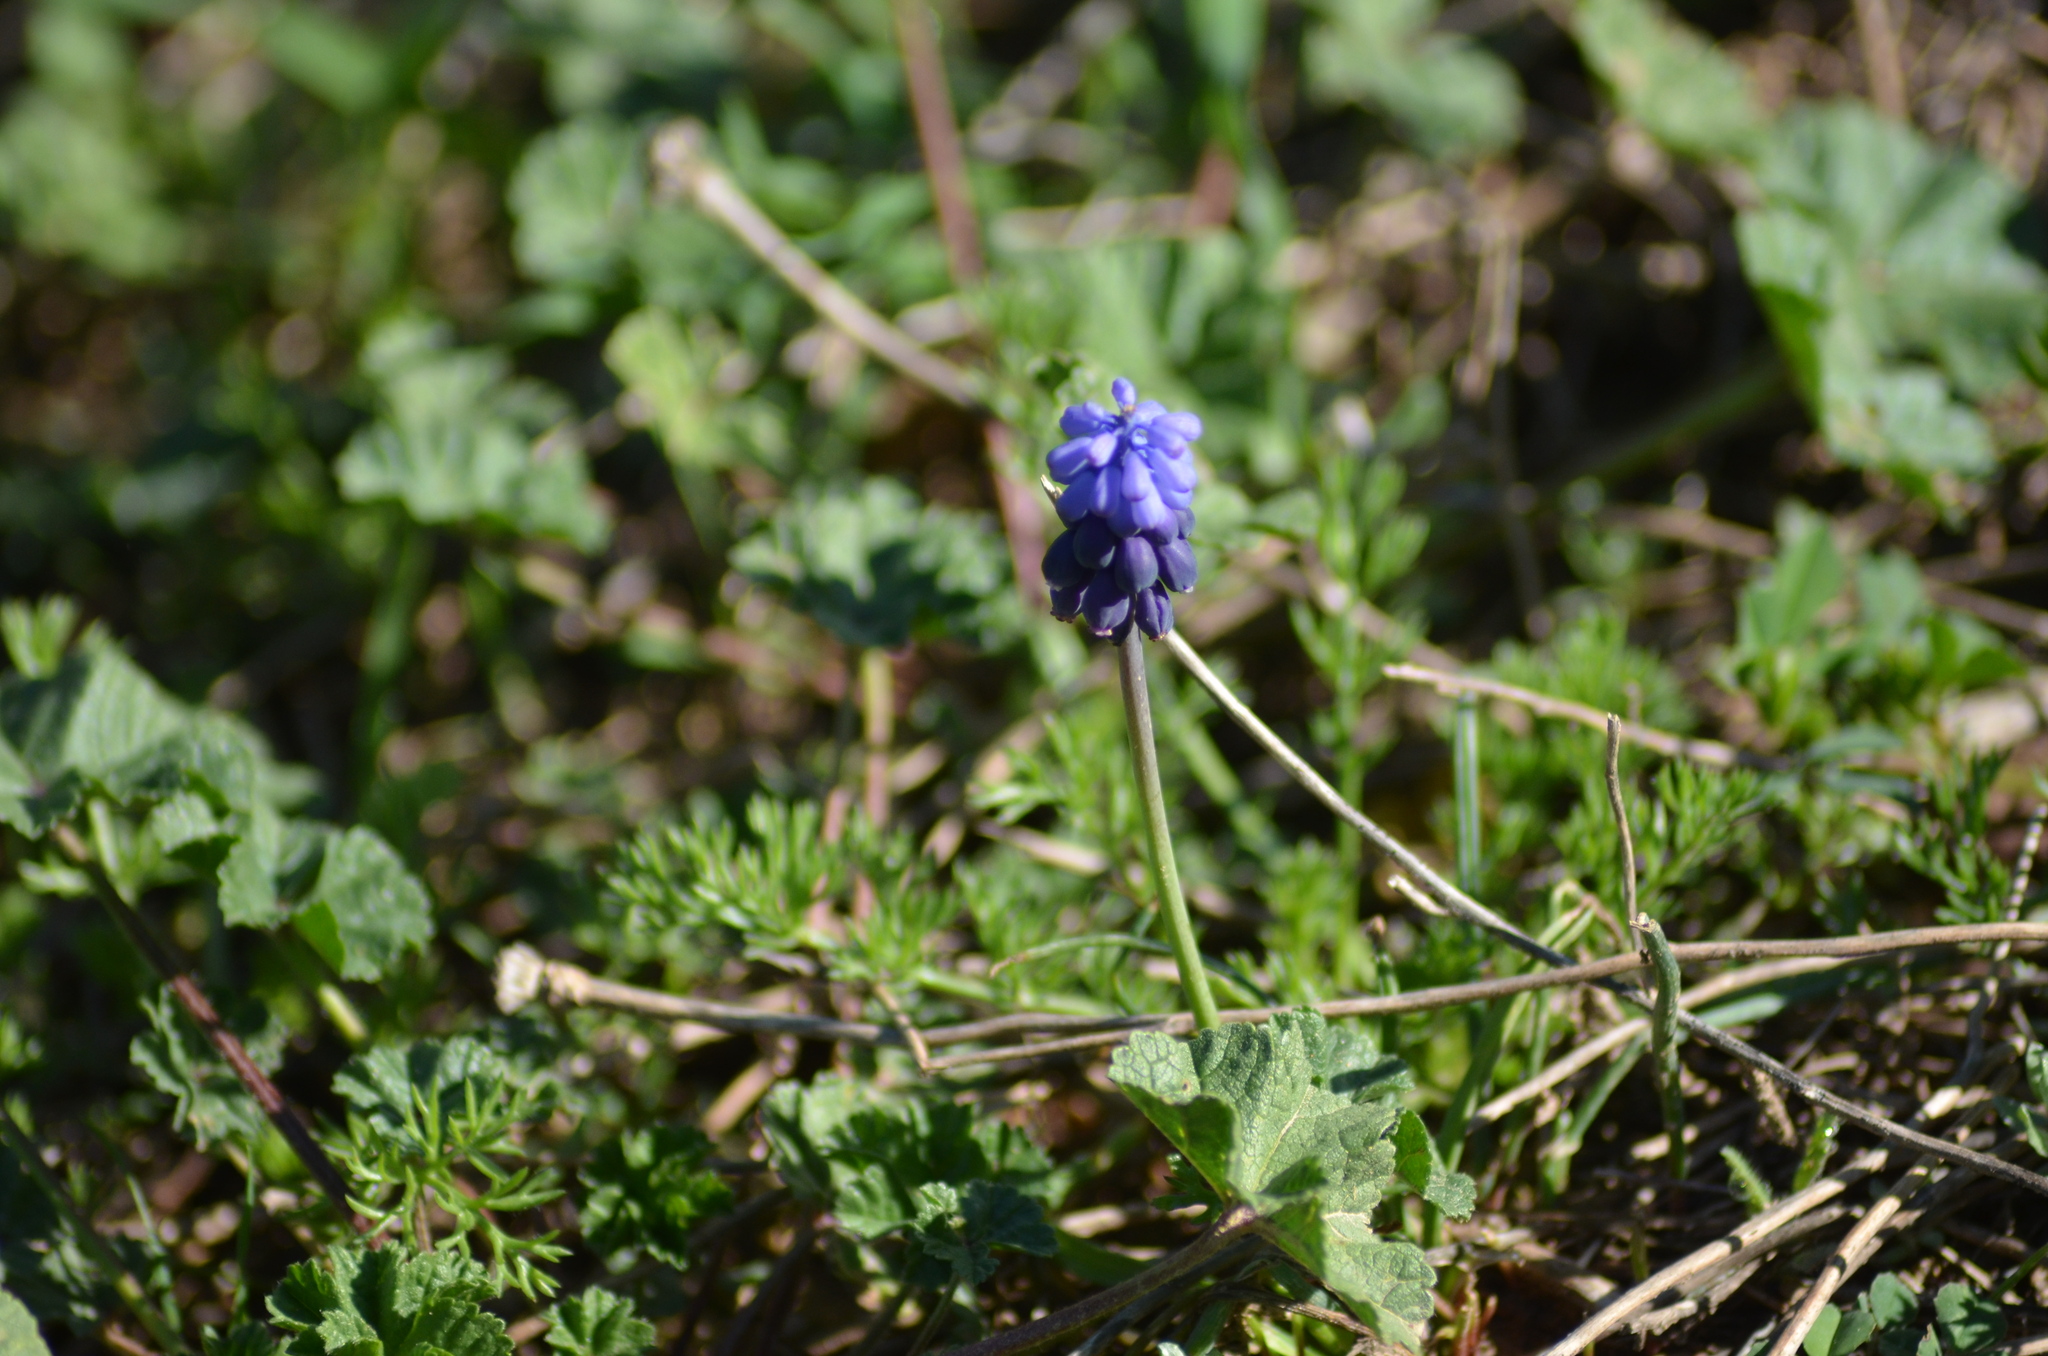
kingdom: Plantae
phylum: Tracheophyta
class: Liliopsida
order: Asparagales
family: Asparagaceae
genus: Muscari
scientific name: Muscari neglectum
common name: Grape-hyacinth
